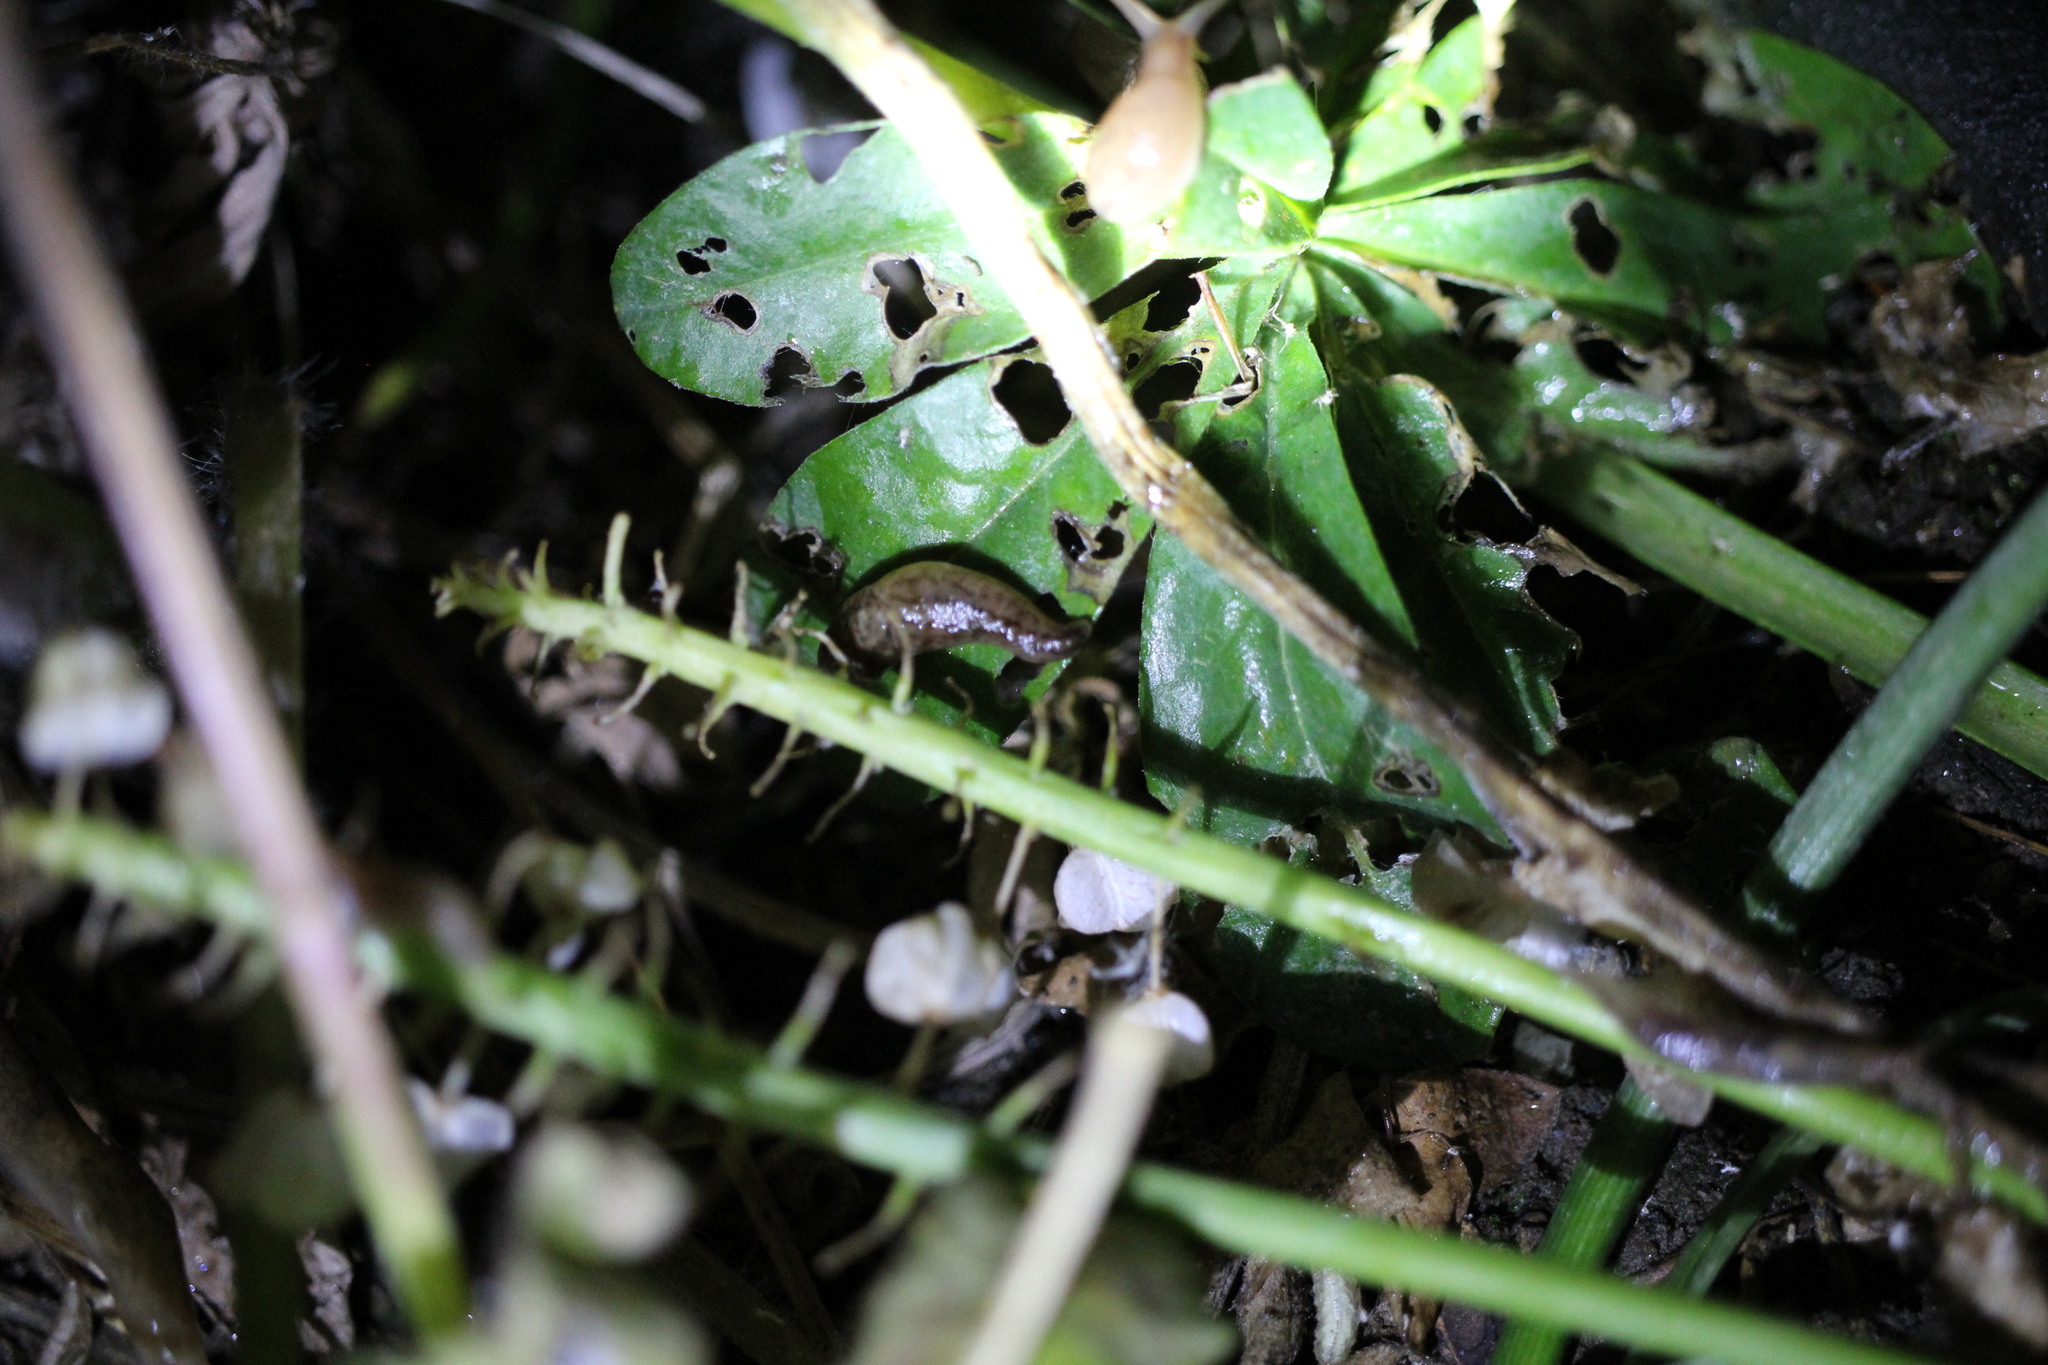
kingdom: Animalia
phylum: Mollusca
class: Gastropoda
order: Stylommatophora
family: Limacidae
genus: Ambigolimax
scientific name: Ambigolimax
